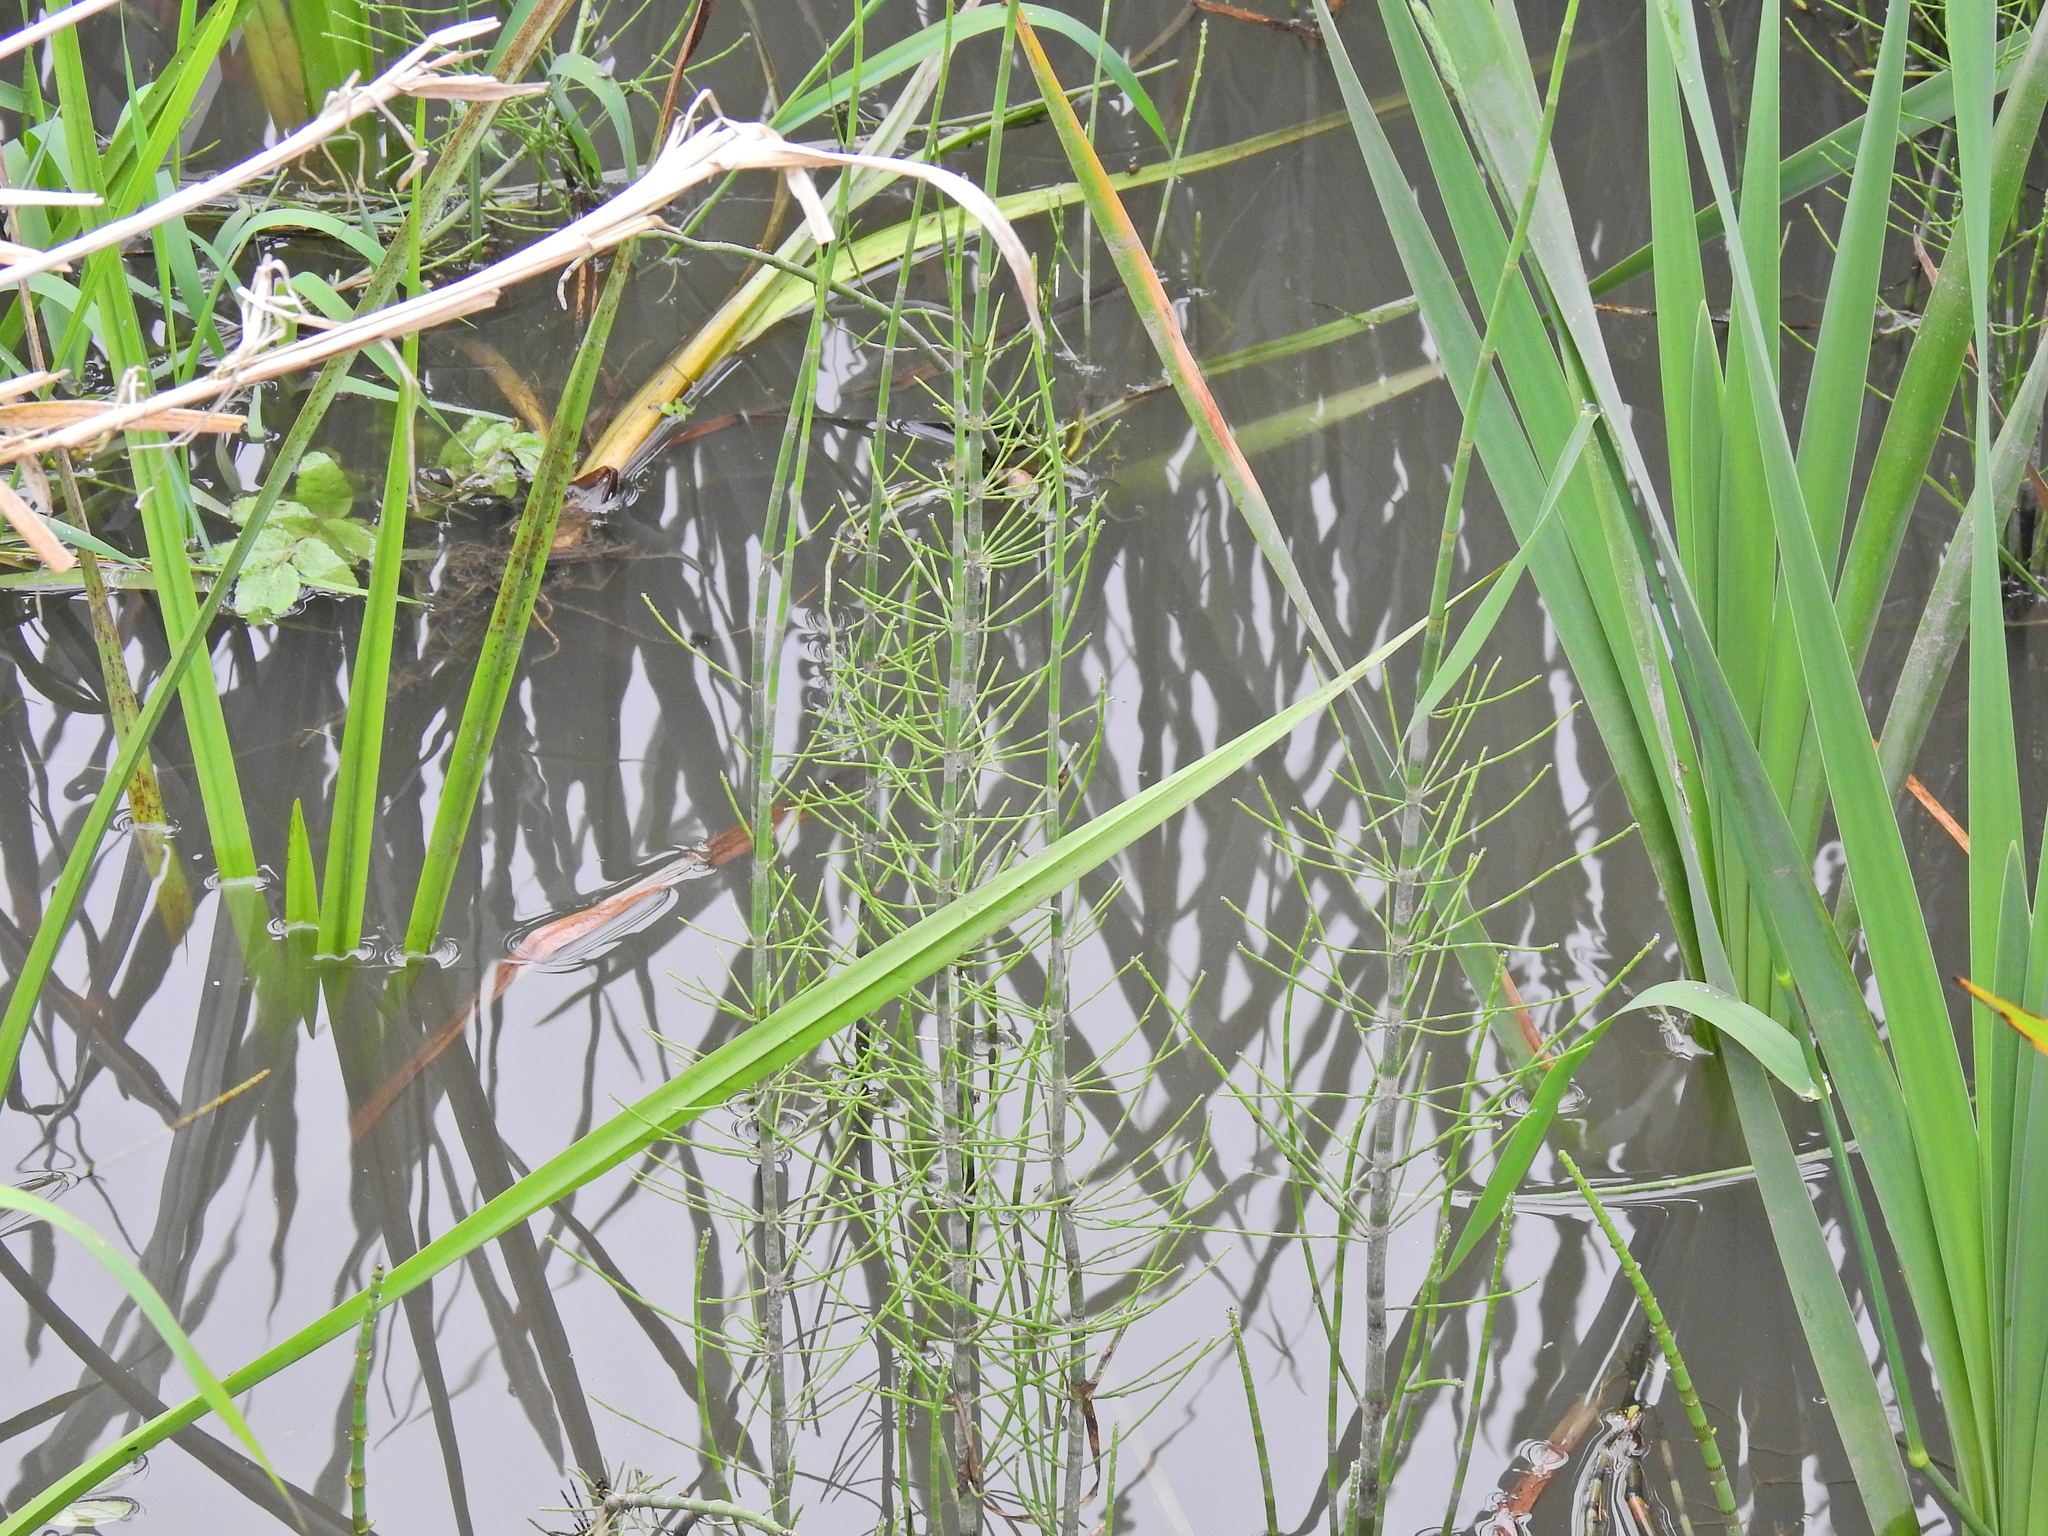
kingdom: Plantae
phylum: Tracheophyta
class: Polypodiopsida
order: Equisetales
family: Equisetaceae
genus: Equisetum
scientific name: Equisetum fluviatile
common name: Water horsetail
